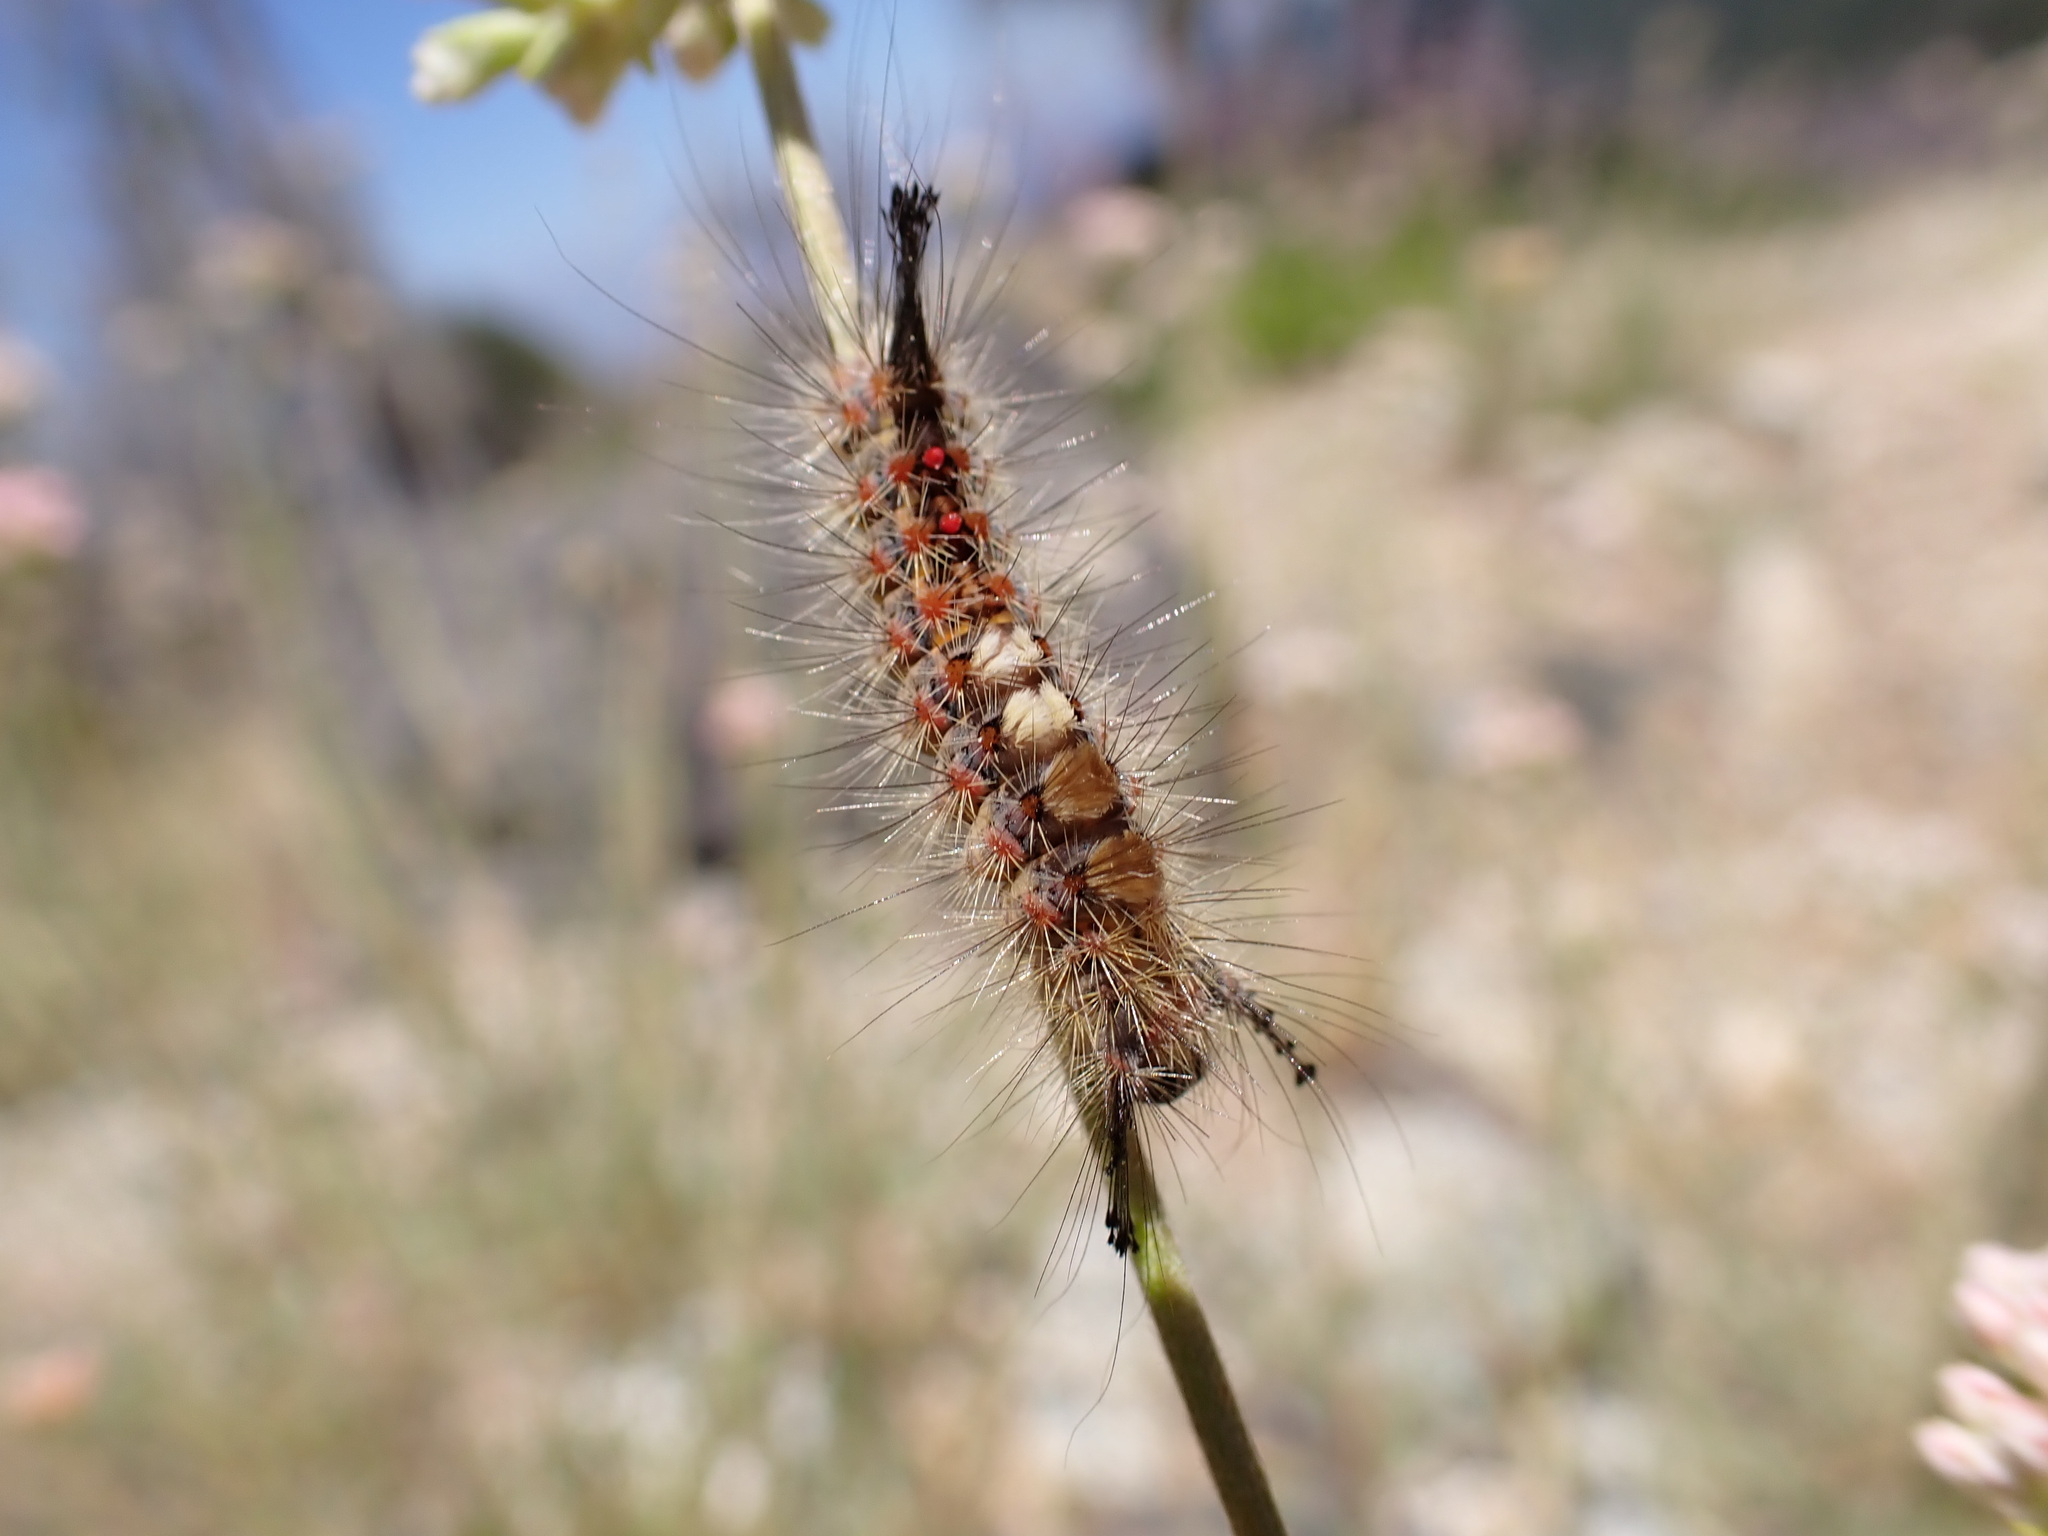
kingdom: Animalia
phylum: Arthropoda
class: Insecta
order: Lepidoptera
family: Erebidae
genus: Orgyia
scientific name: Orgyia
